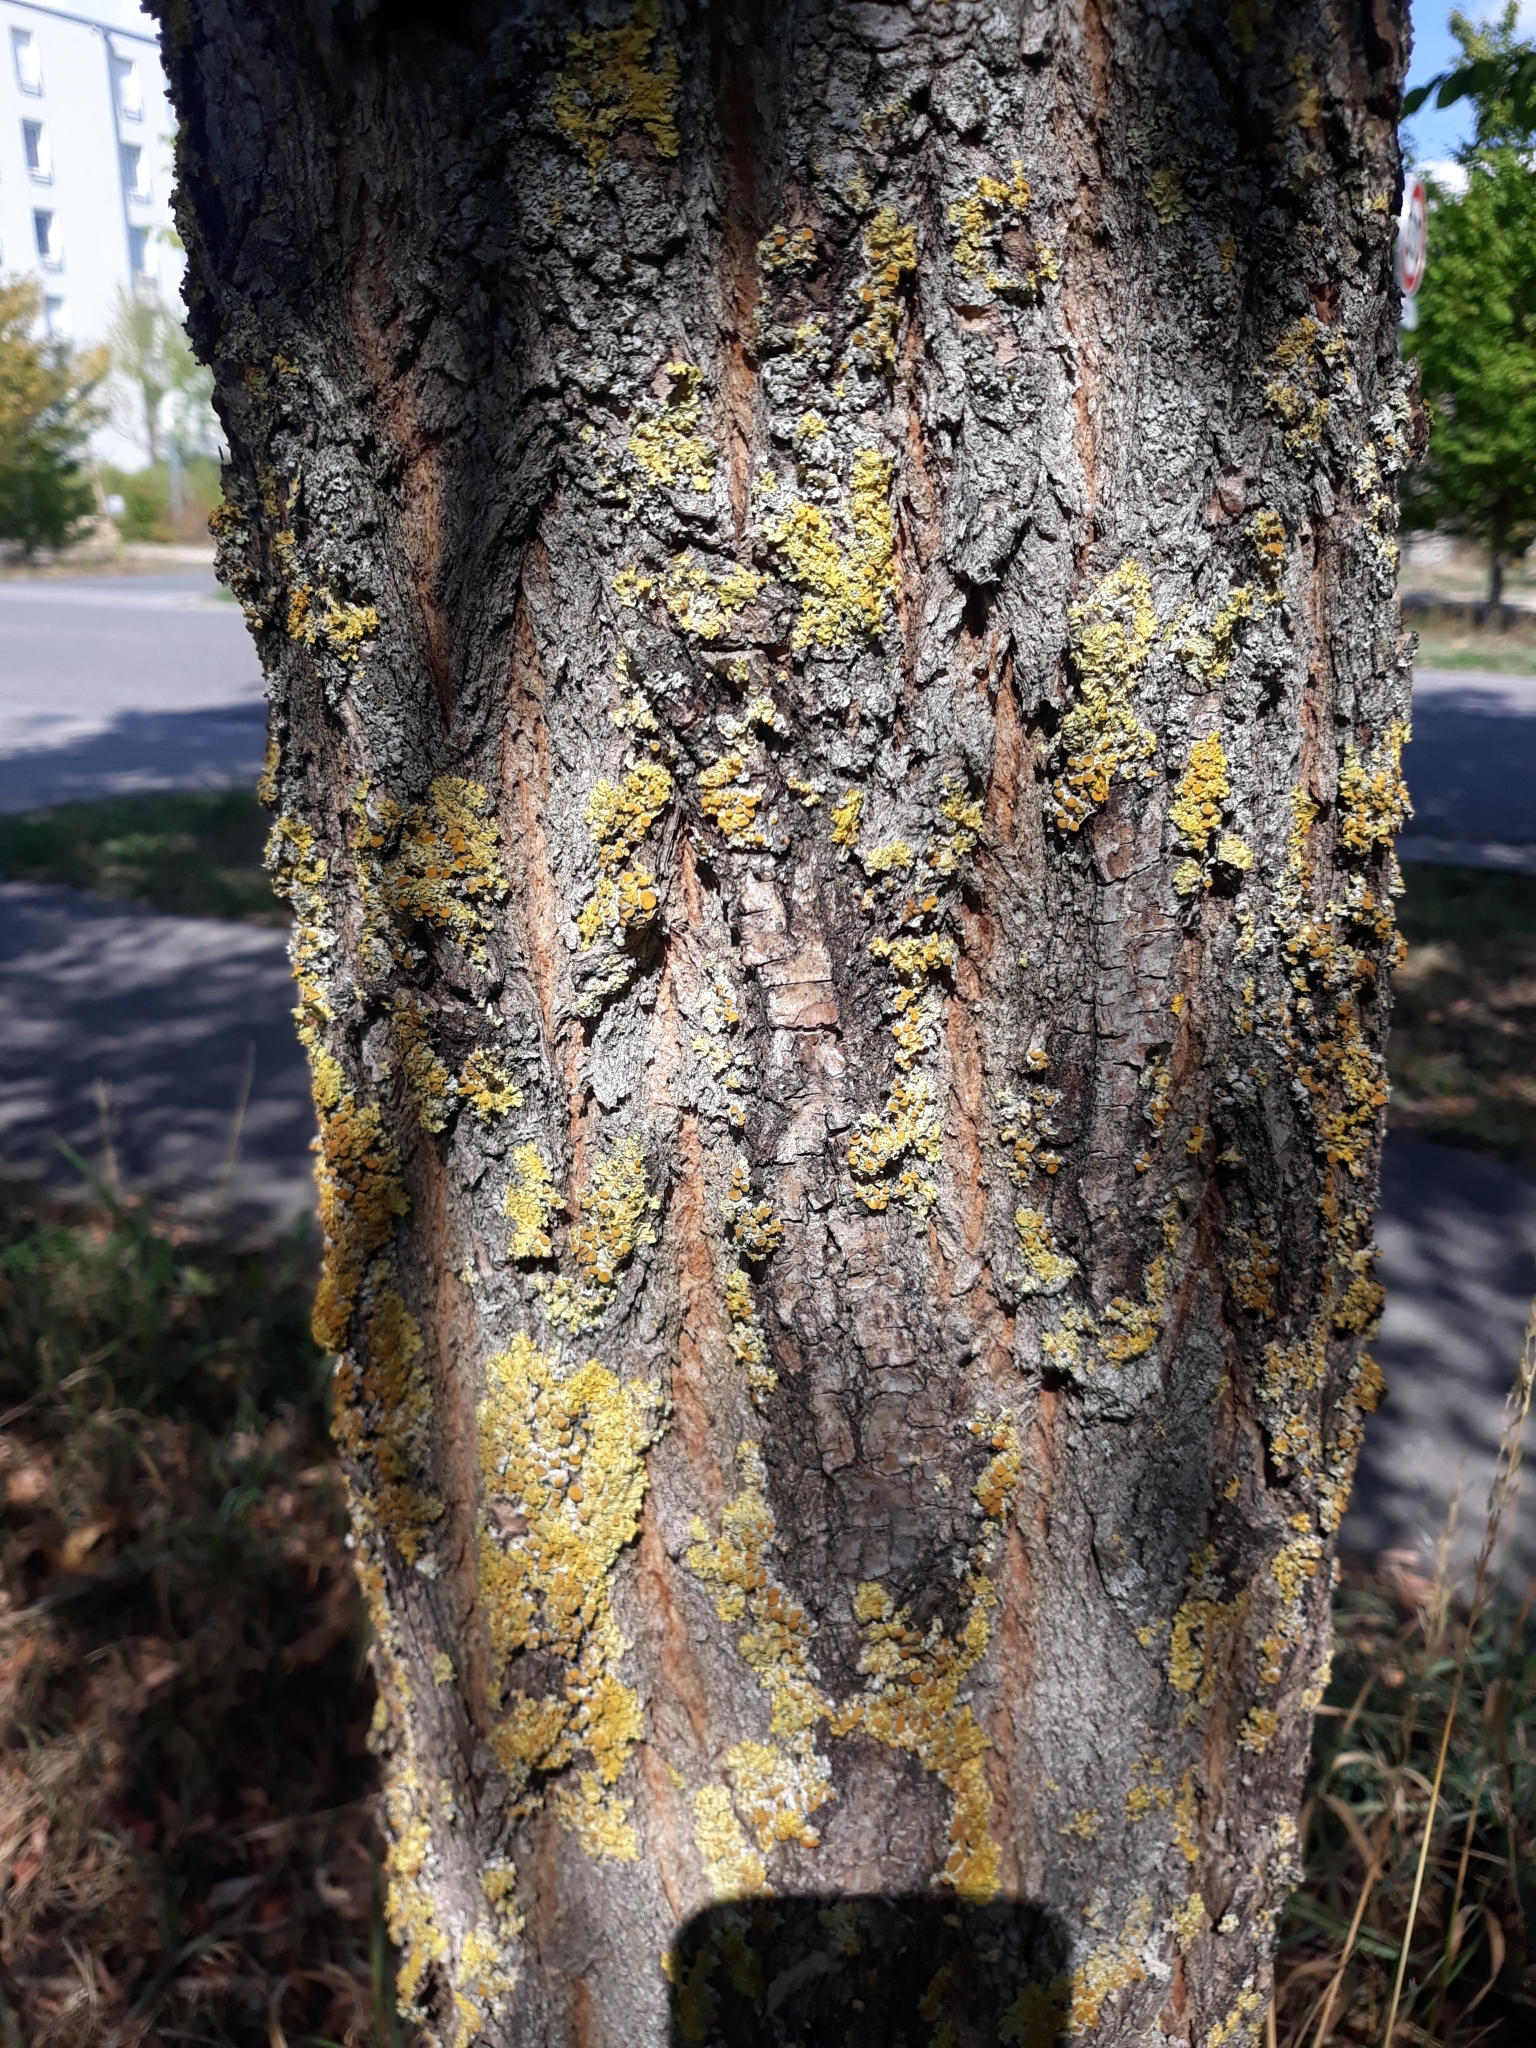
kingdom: Plantae
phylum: Tracheophyta
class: Magnoliopsida
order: Fabales
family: Fabaceae
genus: Robinia
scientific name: Robinia pseudoacacia
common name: Black locust
